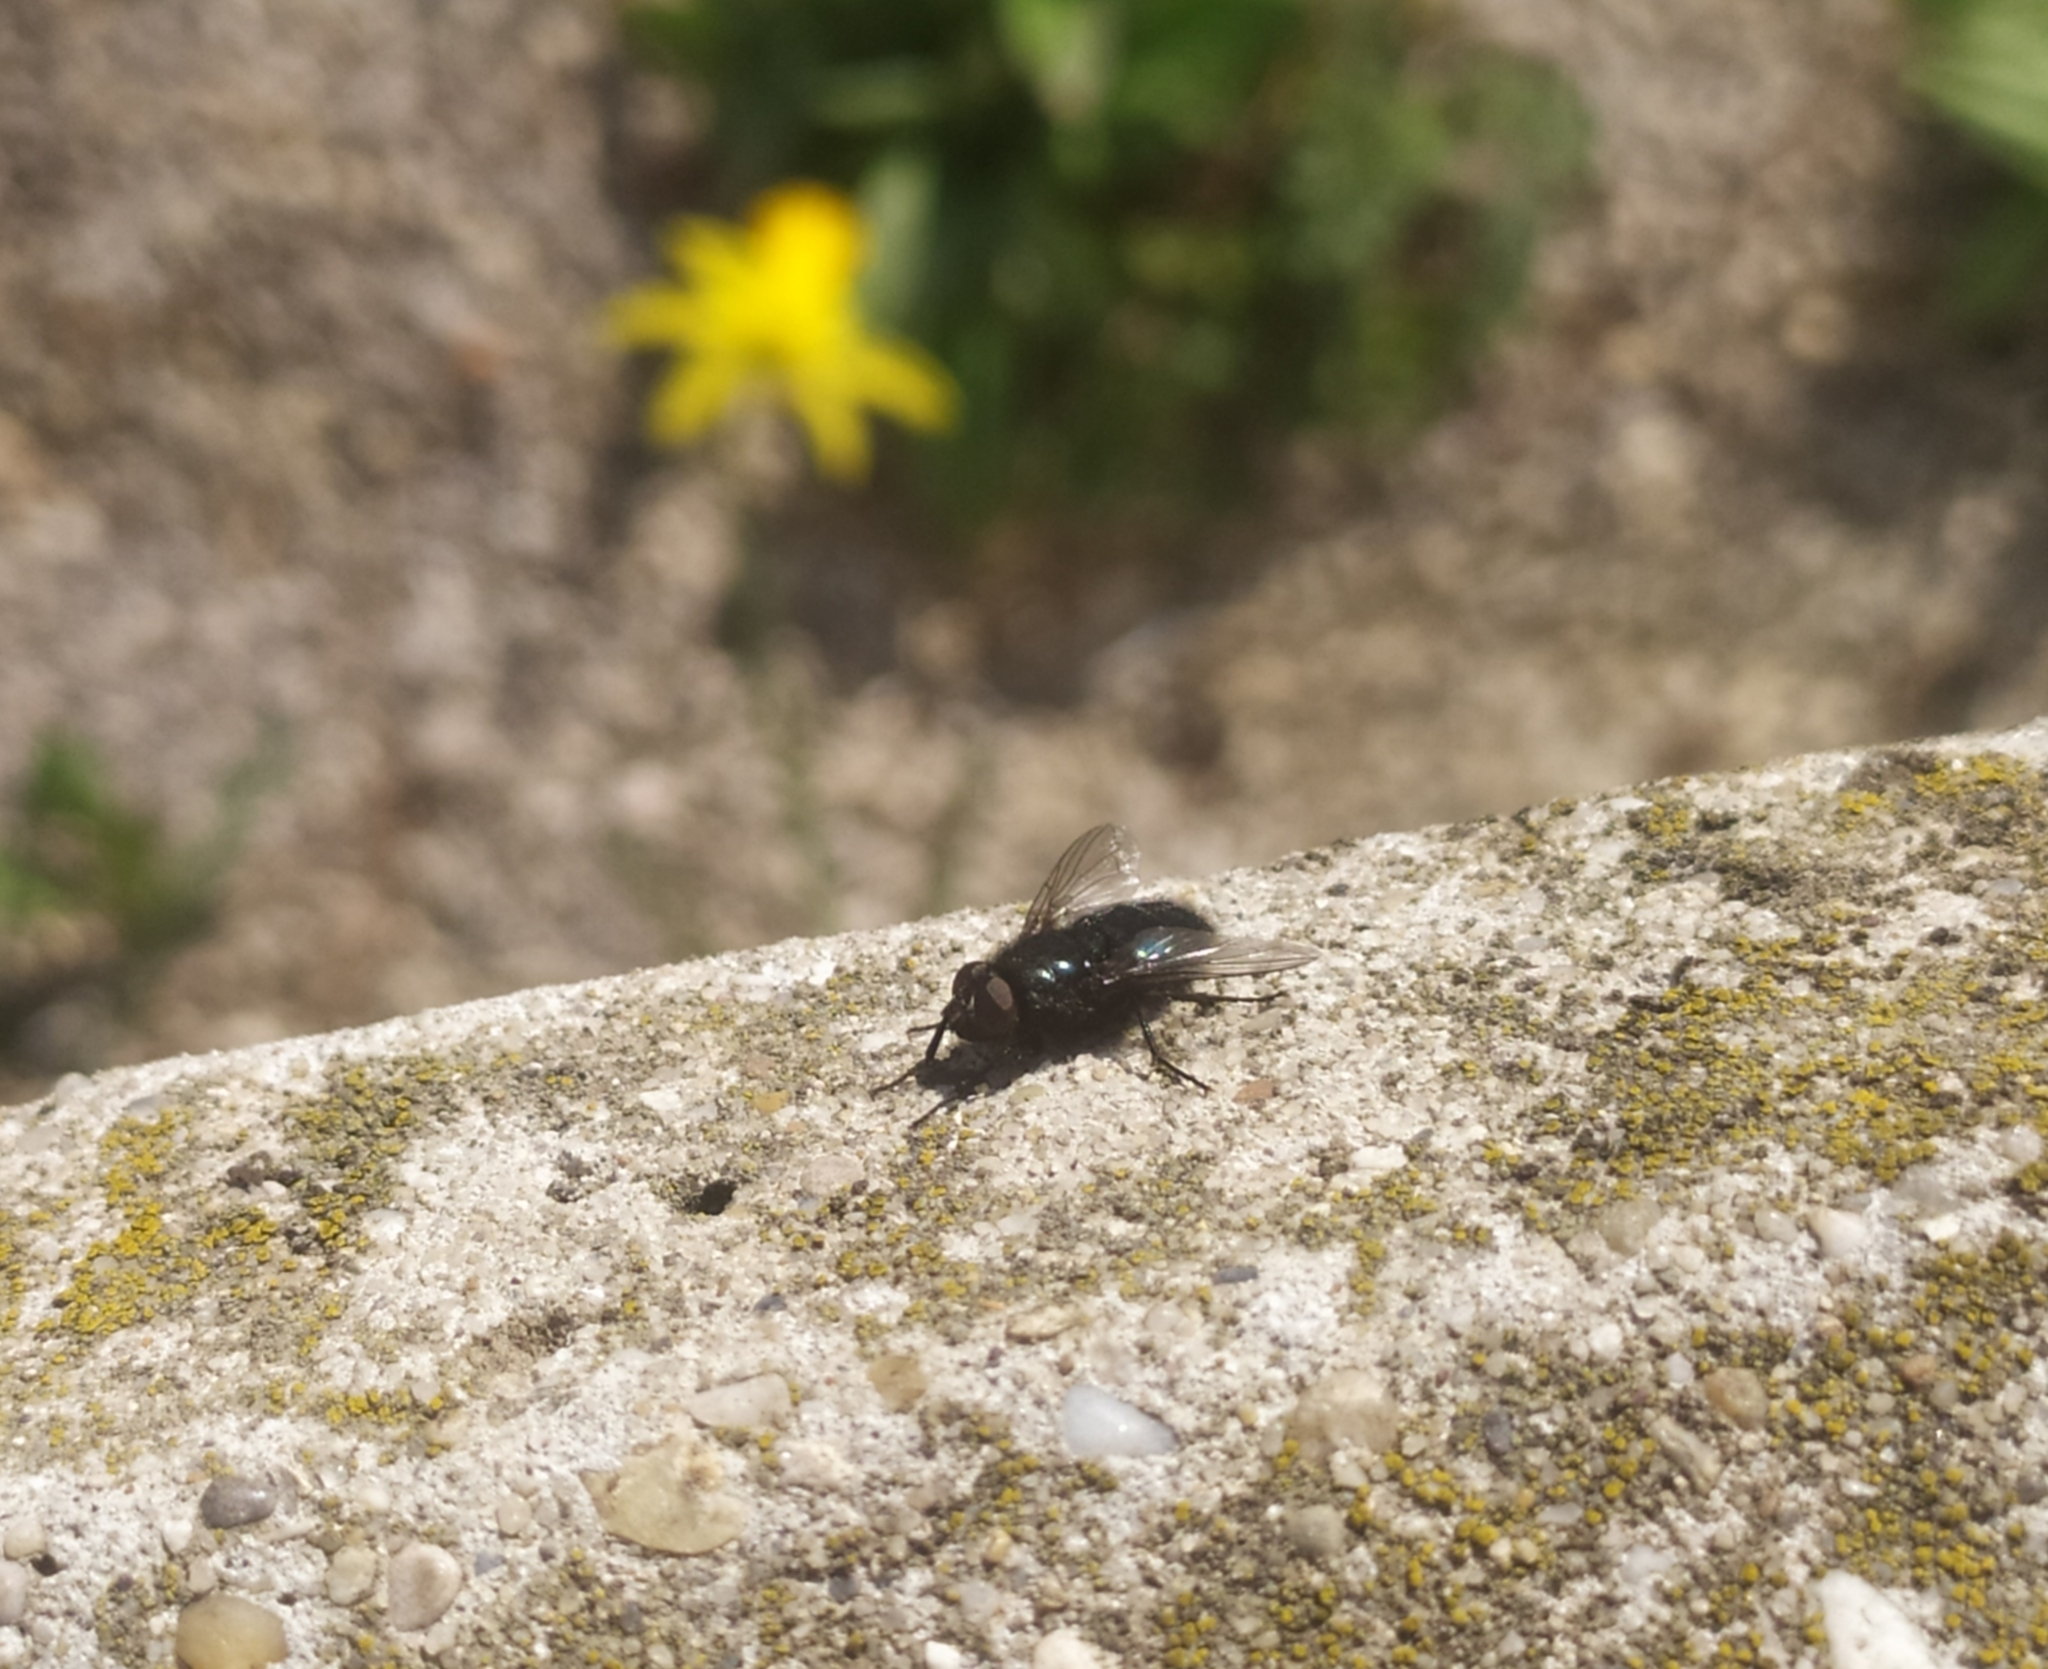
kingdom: Animalia
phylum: Arthropoda
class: Insecta
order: Diptera
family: Calliphoridae
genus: Protophormia
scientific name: Protophormia terraenovae
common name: Blackbottle
